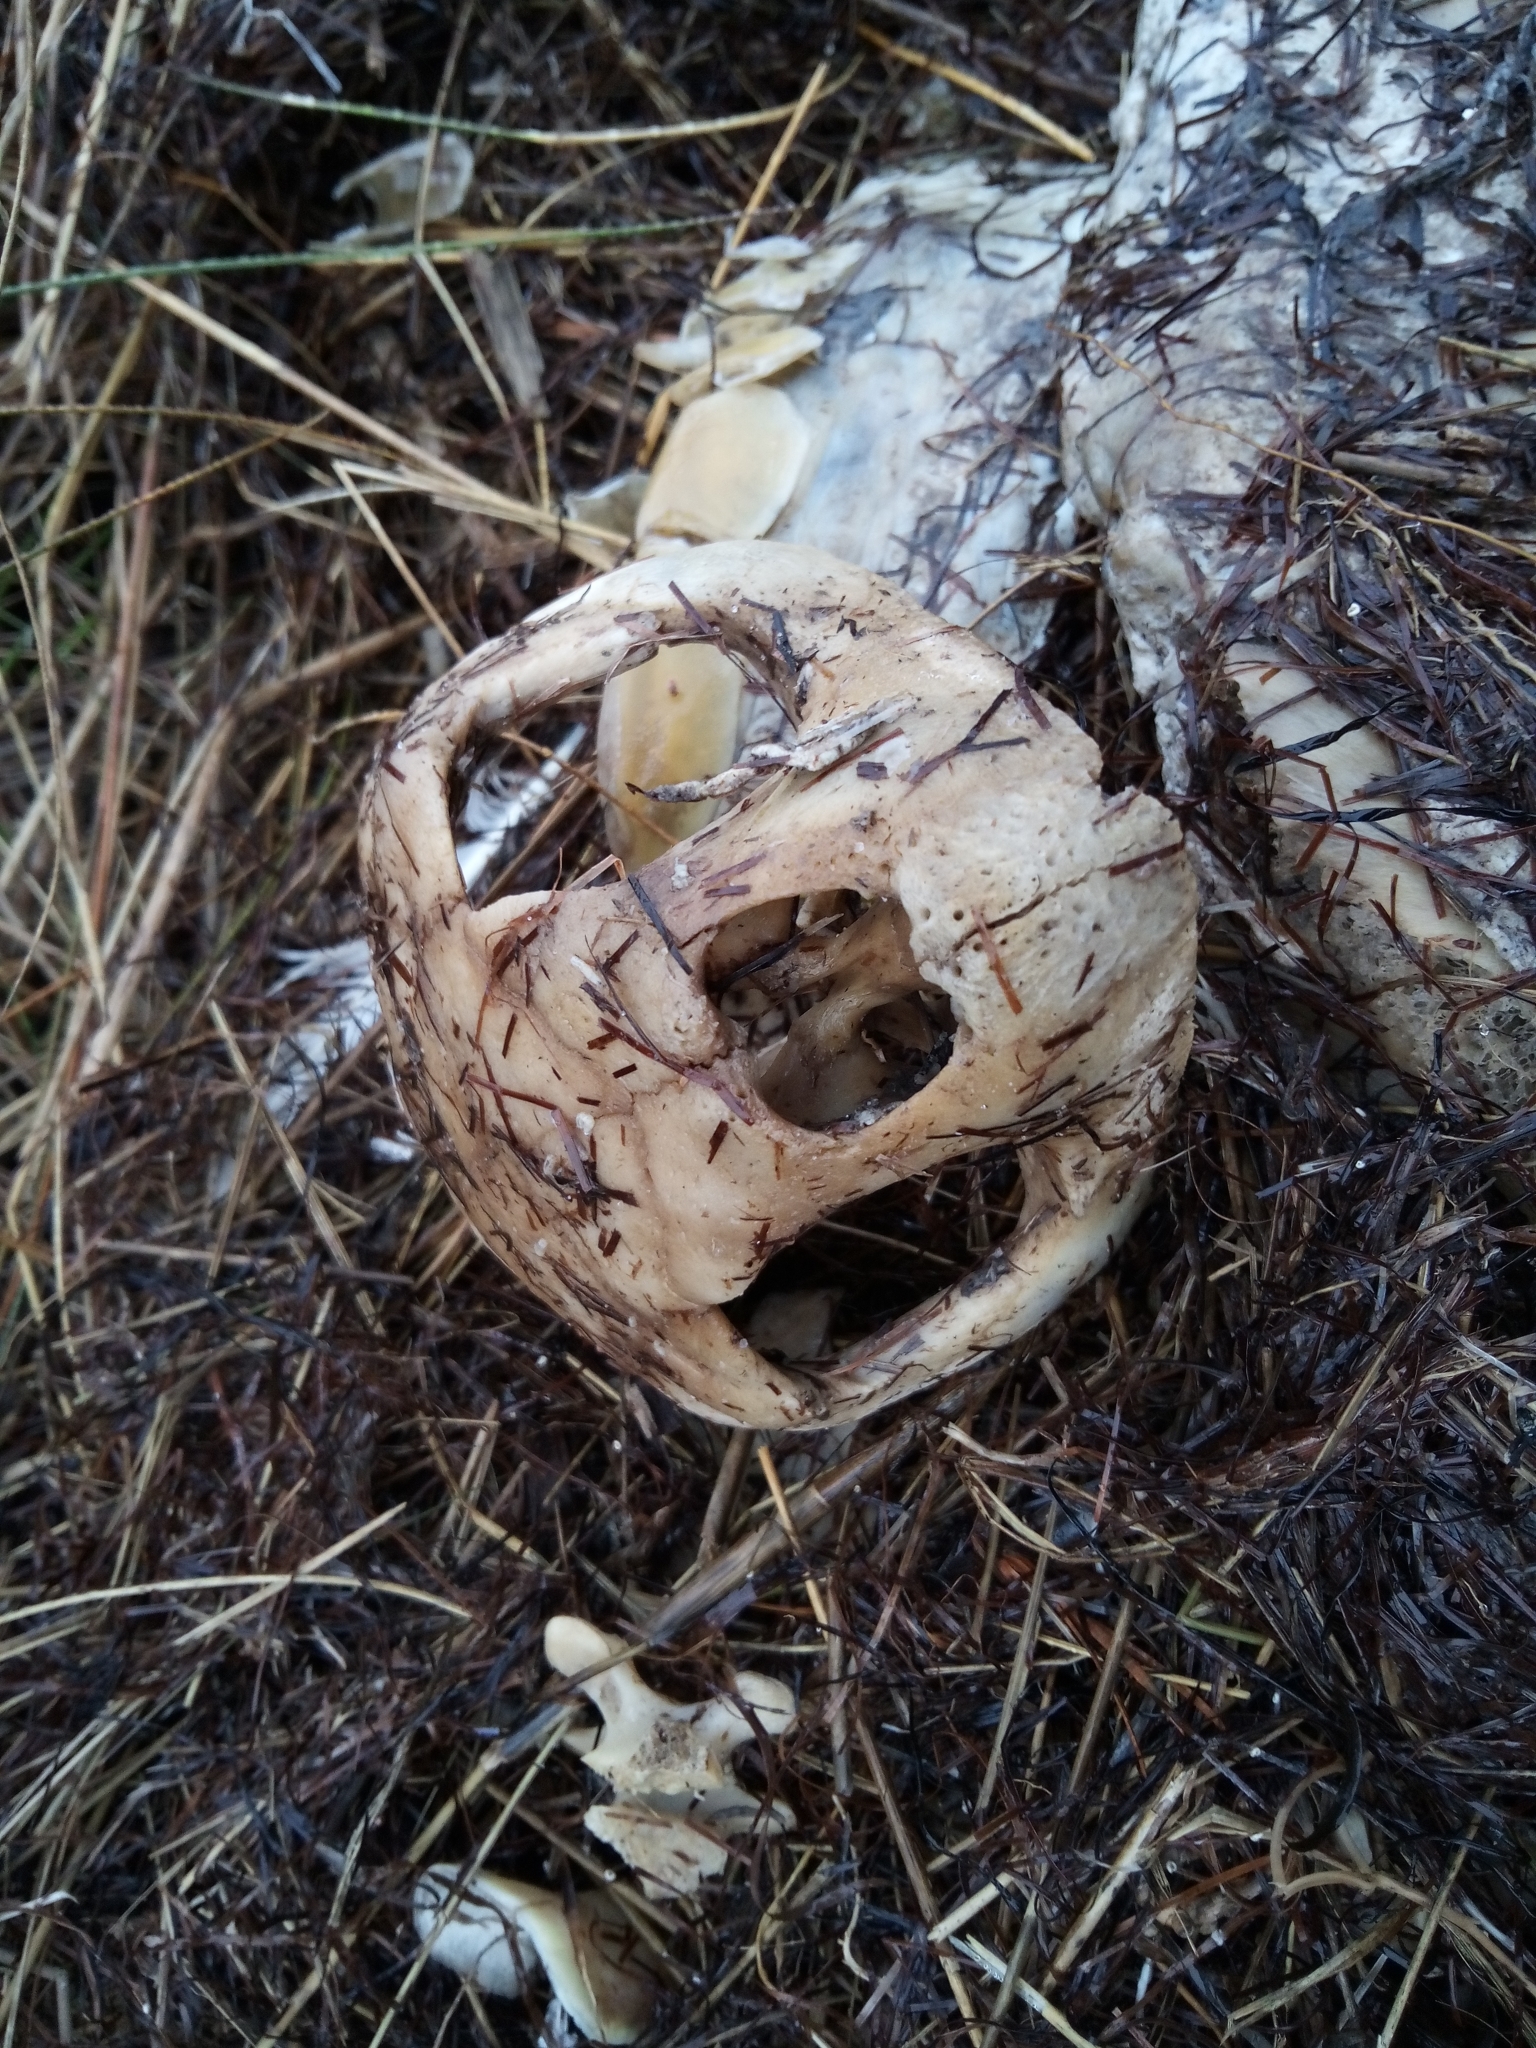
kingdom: Animalia
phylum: Chordata
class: Testudines
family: Cheloniidae
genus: Caretta
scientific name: Caretta caretta
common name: Loggerhead sea turtle
